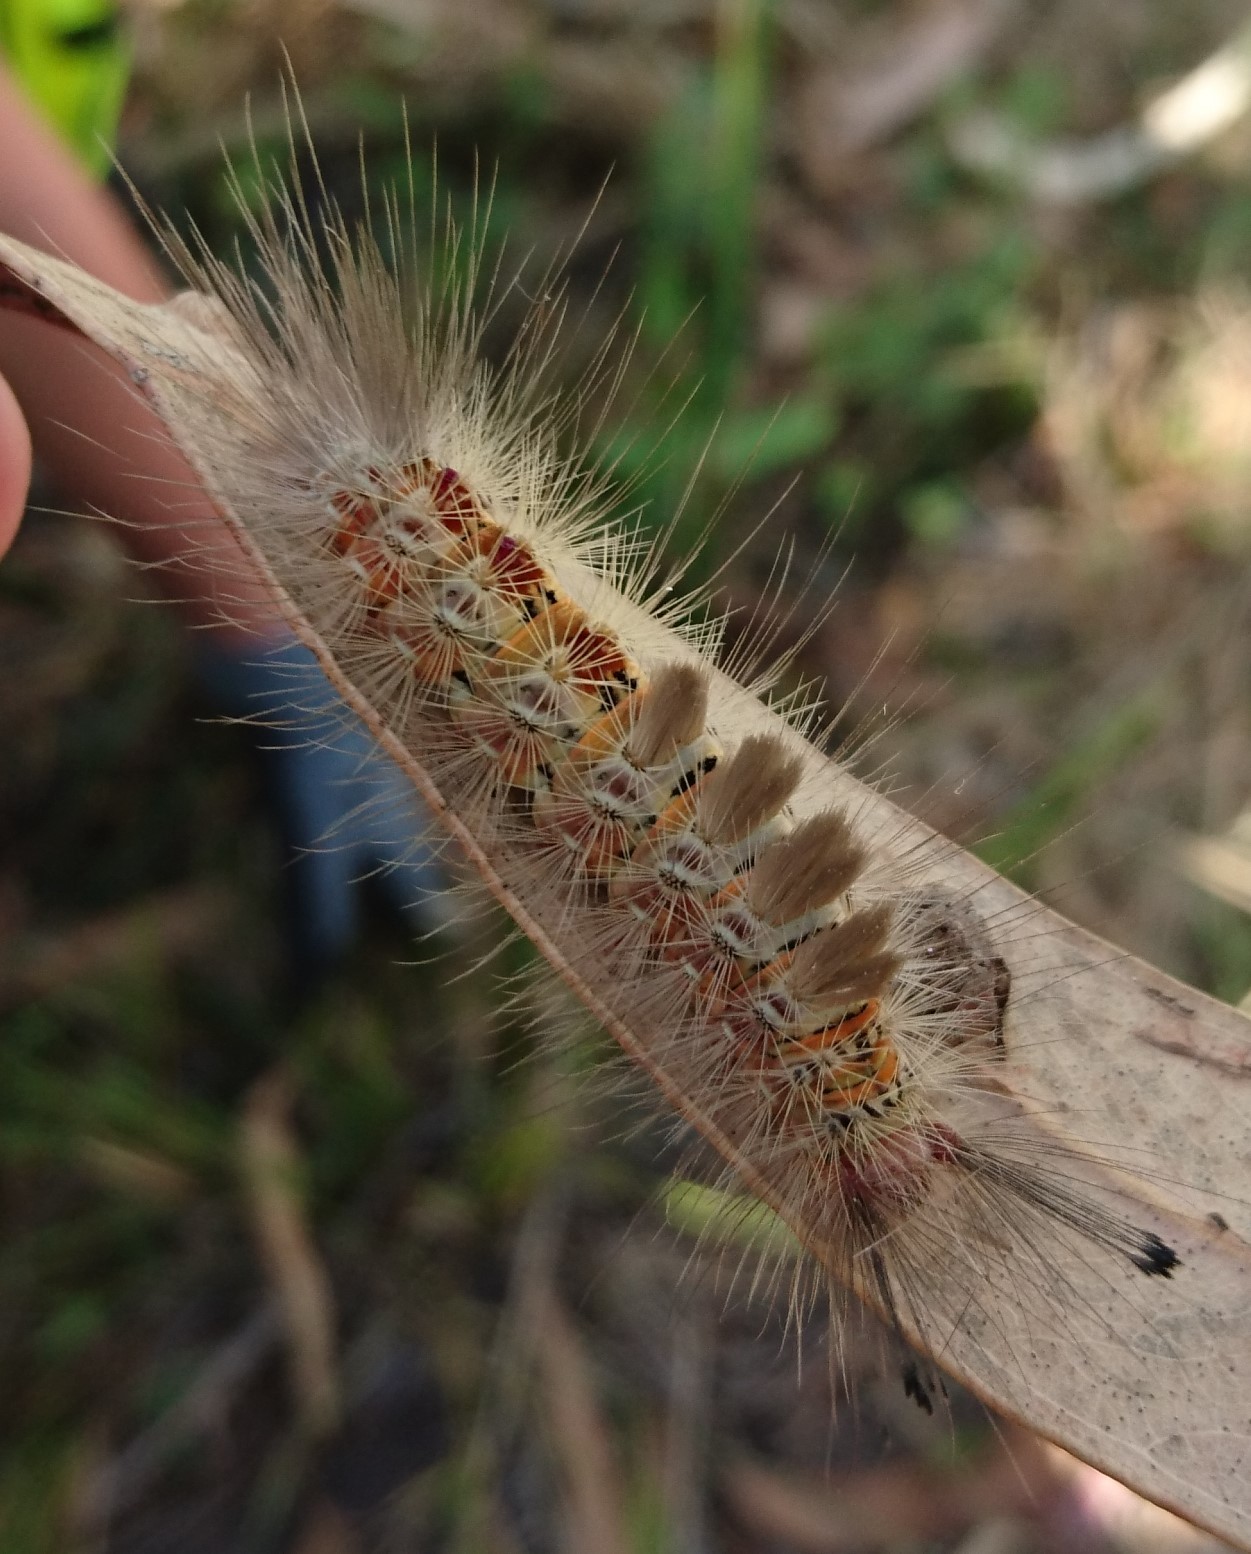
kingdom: Animalia
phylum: Arthropoda
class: Insecta
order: Lepidoptera
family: Erebidae
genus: Orgyia
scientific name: Orgyia
